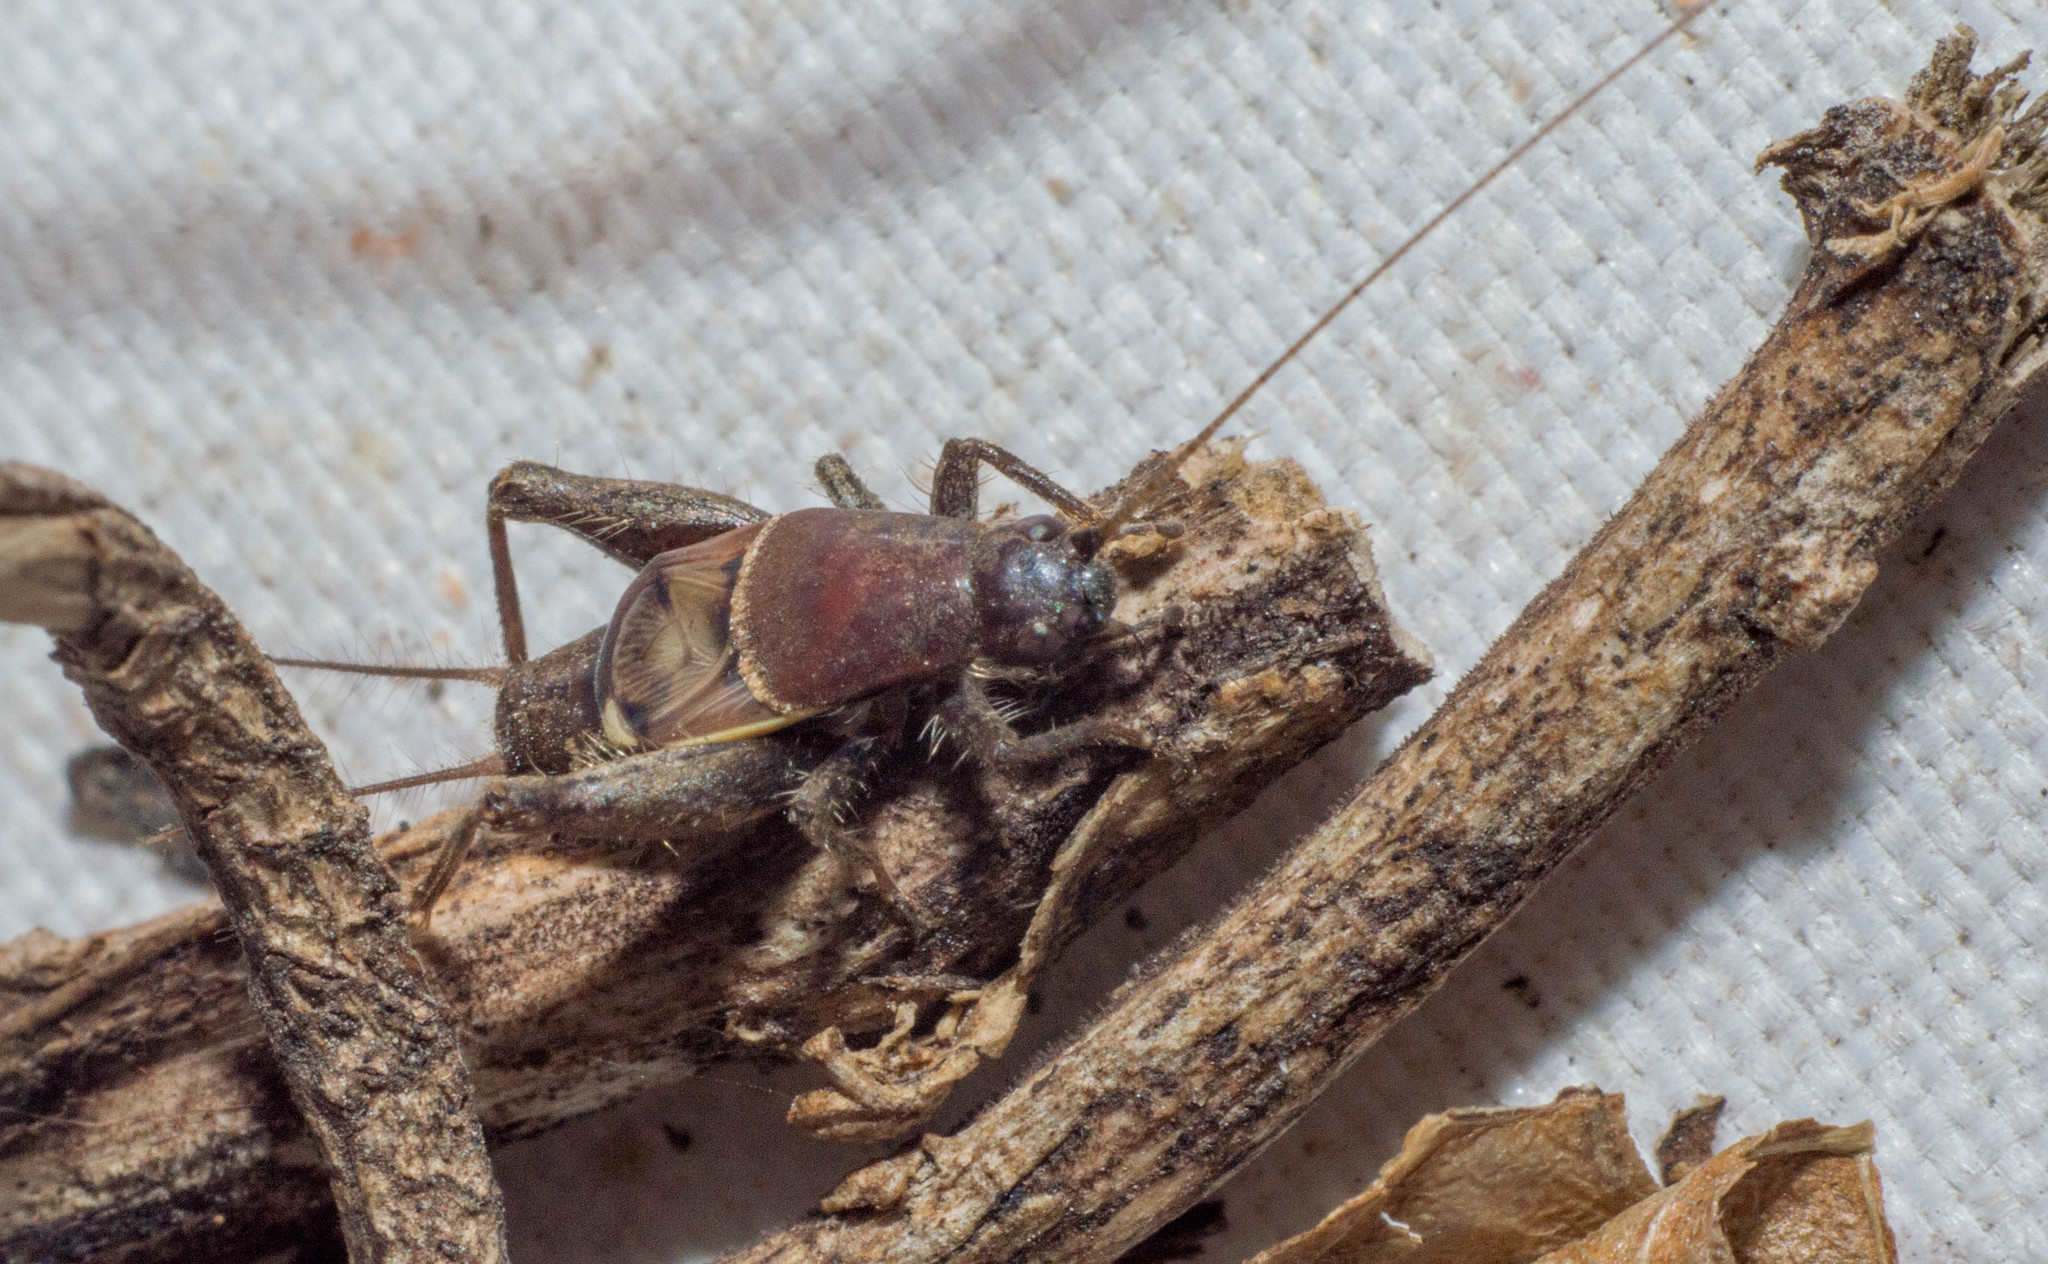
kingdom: Animalia
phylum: Arthropoda
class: Insecta
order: Orthoptera
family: Mogoplistidae
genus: Ornebius
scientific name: Ornebius alatus
